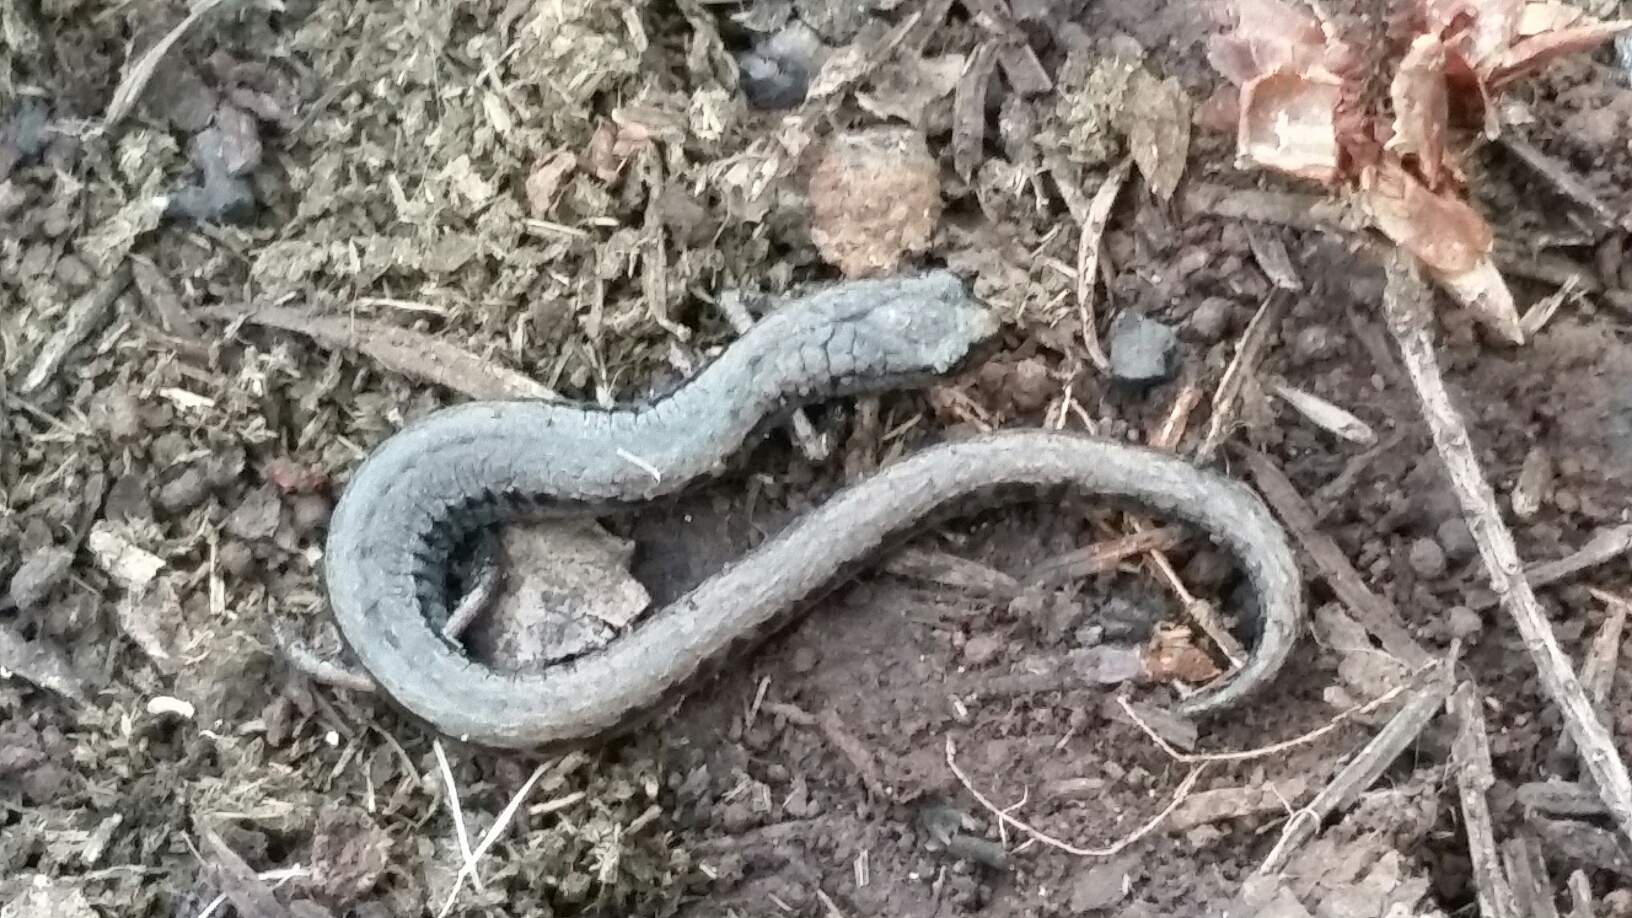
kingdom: Animalia
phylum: Chordata
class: Amphibia
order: Caudata
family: Plethodontidae
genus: Batrachoseps
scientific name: Batrachoseps attenuatus
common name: California slender salamander
